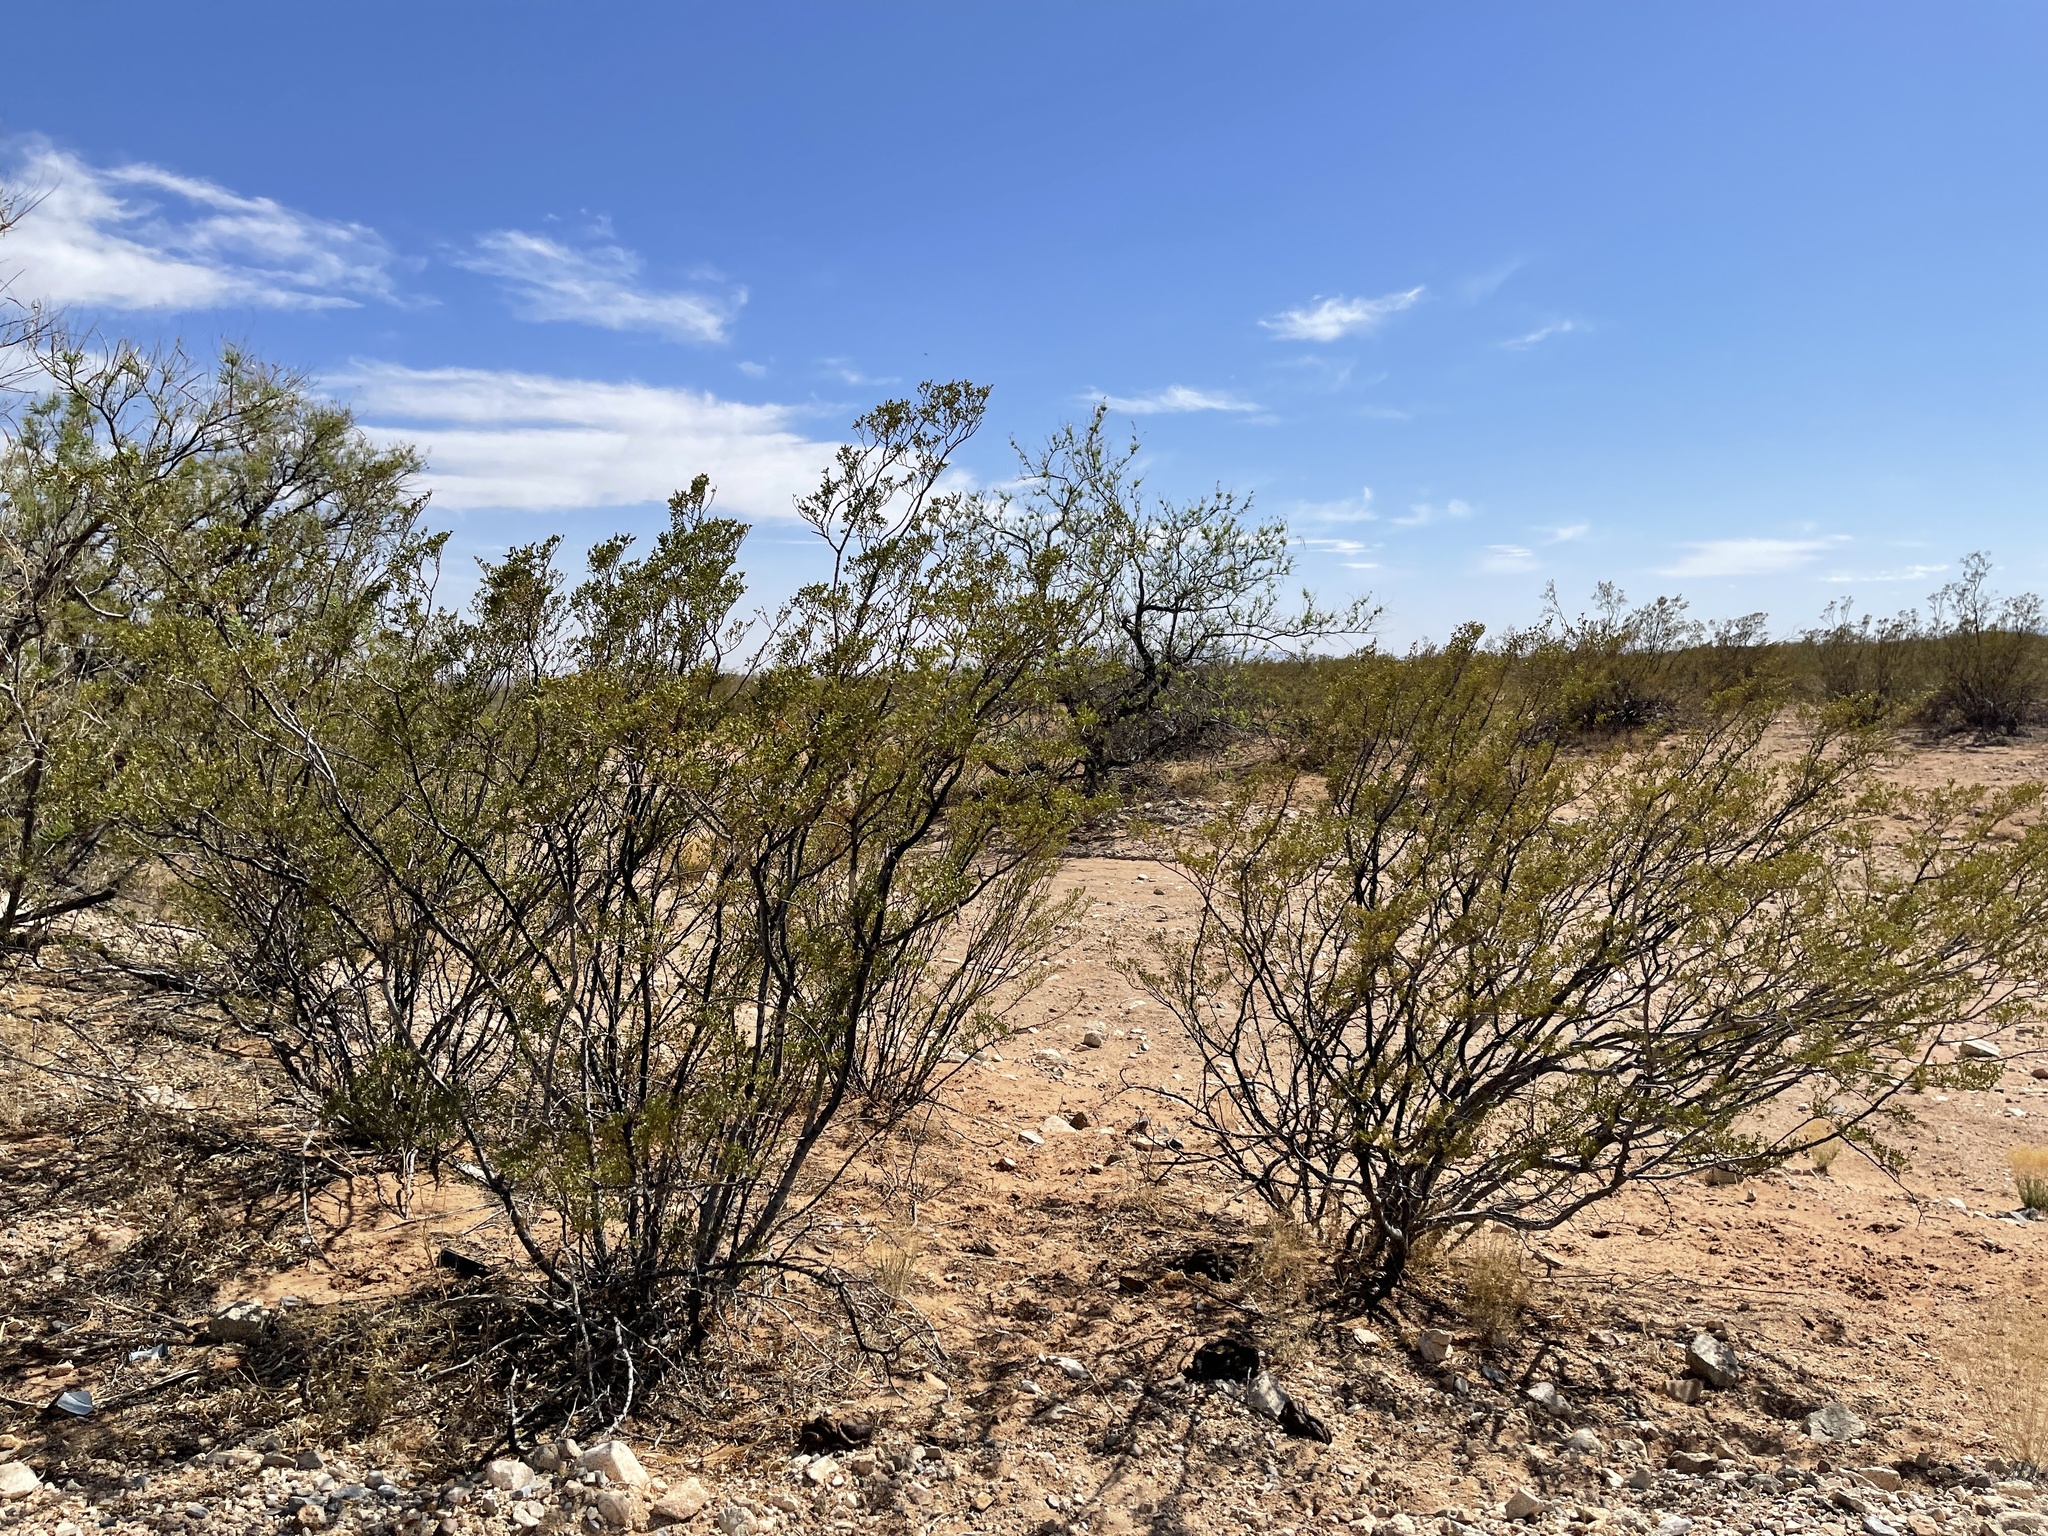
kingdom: Plantae
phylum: Tracheophyta
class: Magnoliopsida
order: Zygophyllales
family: Zygophyllaceae
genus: Larrea
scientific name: Larrea tridentata
